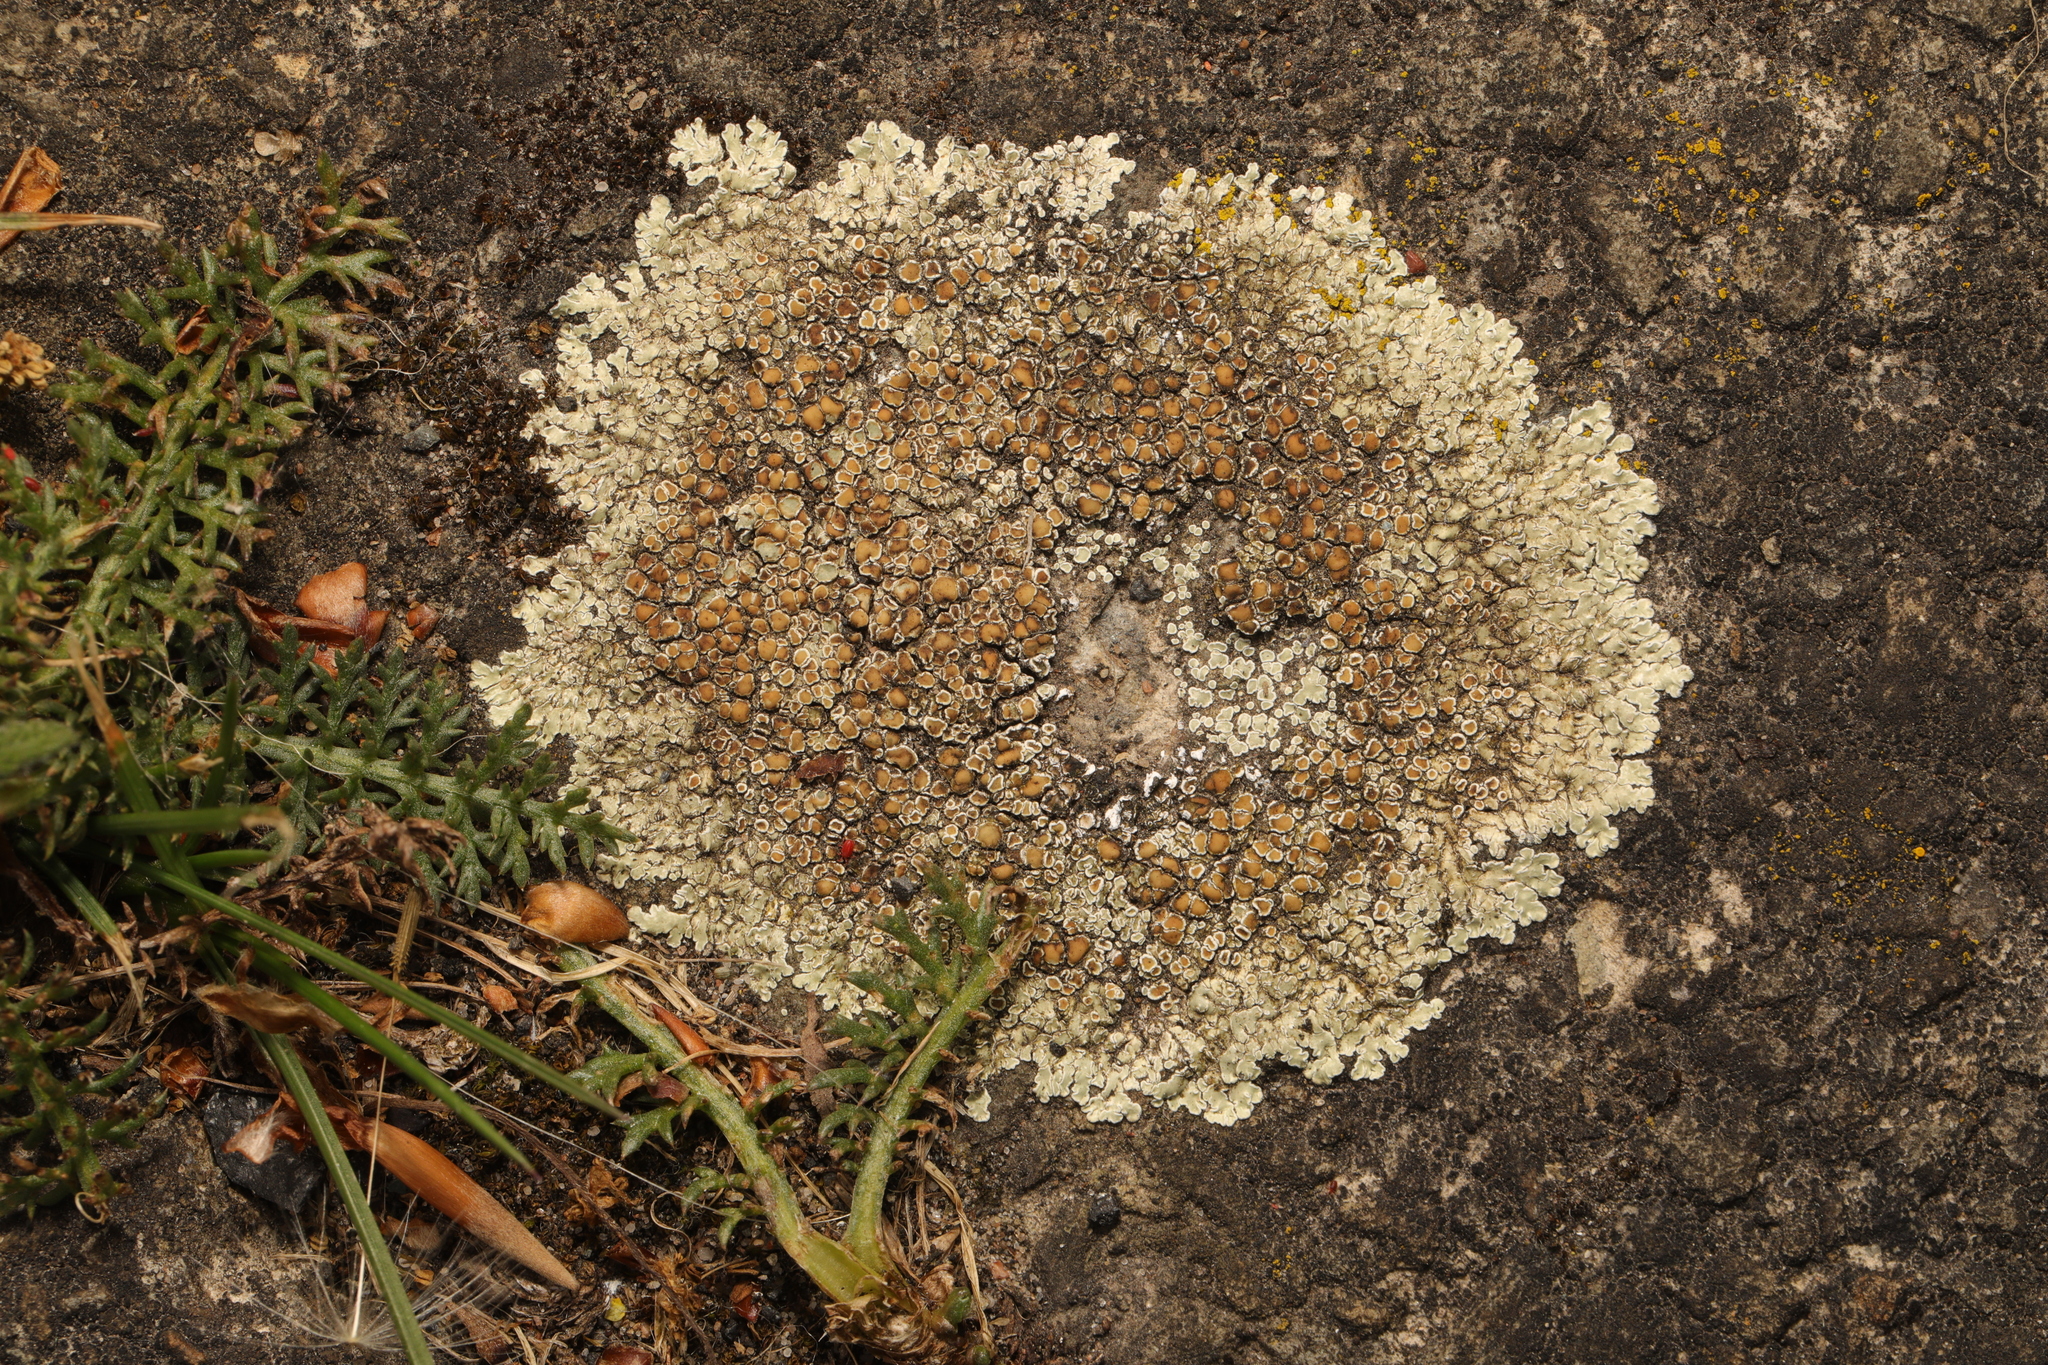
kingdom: Fungi
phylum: Ascomycota
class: Lecanoromycetes
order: Lecanorales
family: Lecanoraceae
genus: Protoparmeliopsis
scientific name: Protoparmeliopsis muralis
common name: Stonewall rim lichen
